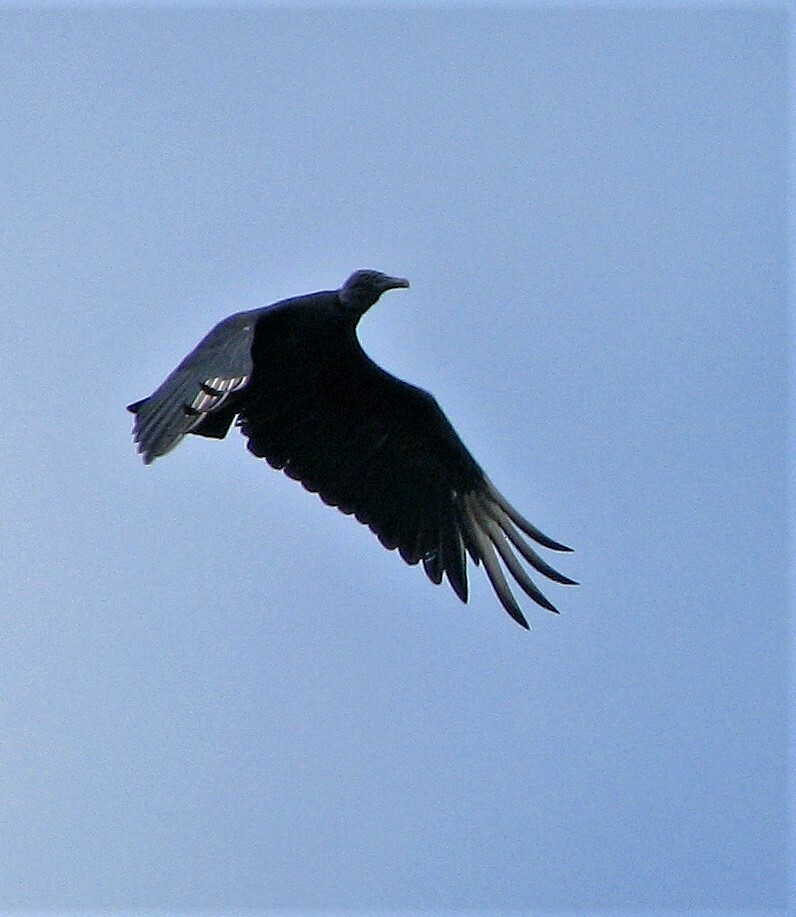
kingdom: Animalia
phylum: Chordata
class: Aves
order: Accipitriformes
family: Cathartidae
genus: Coragyps
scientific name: Coragyps atratus
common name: Black vulture
